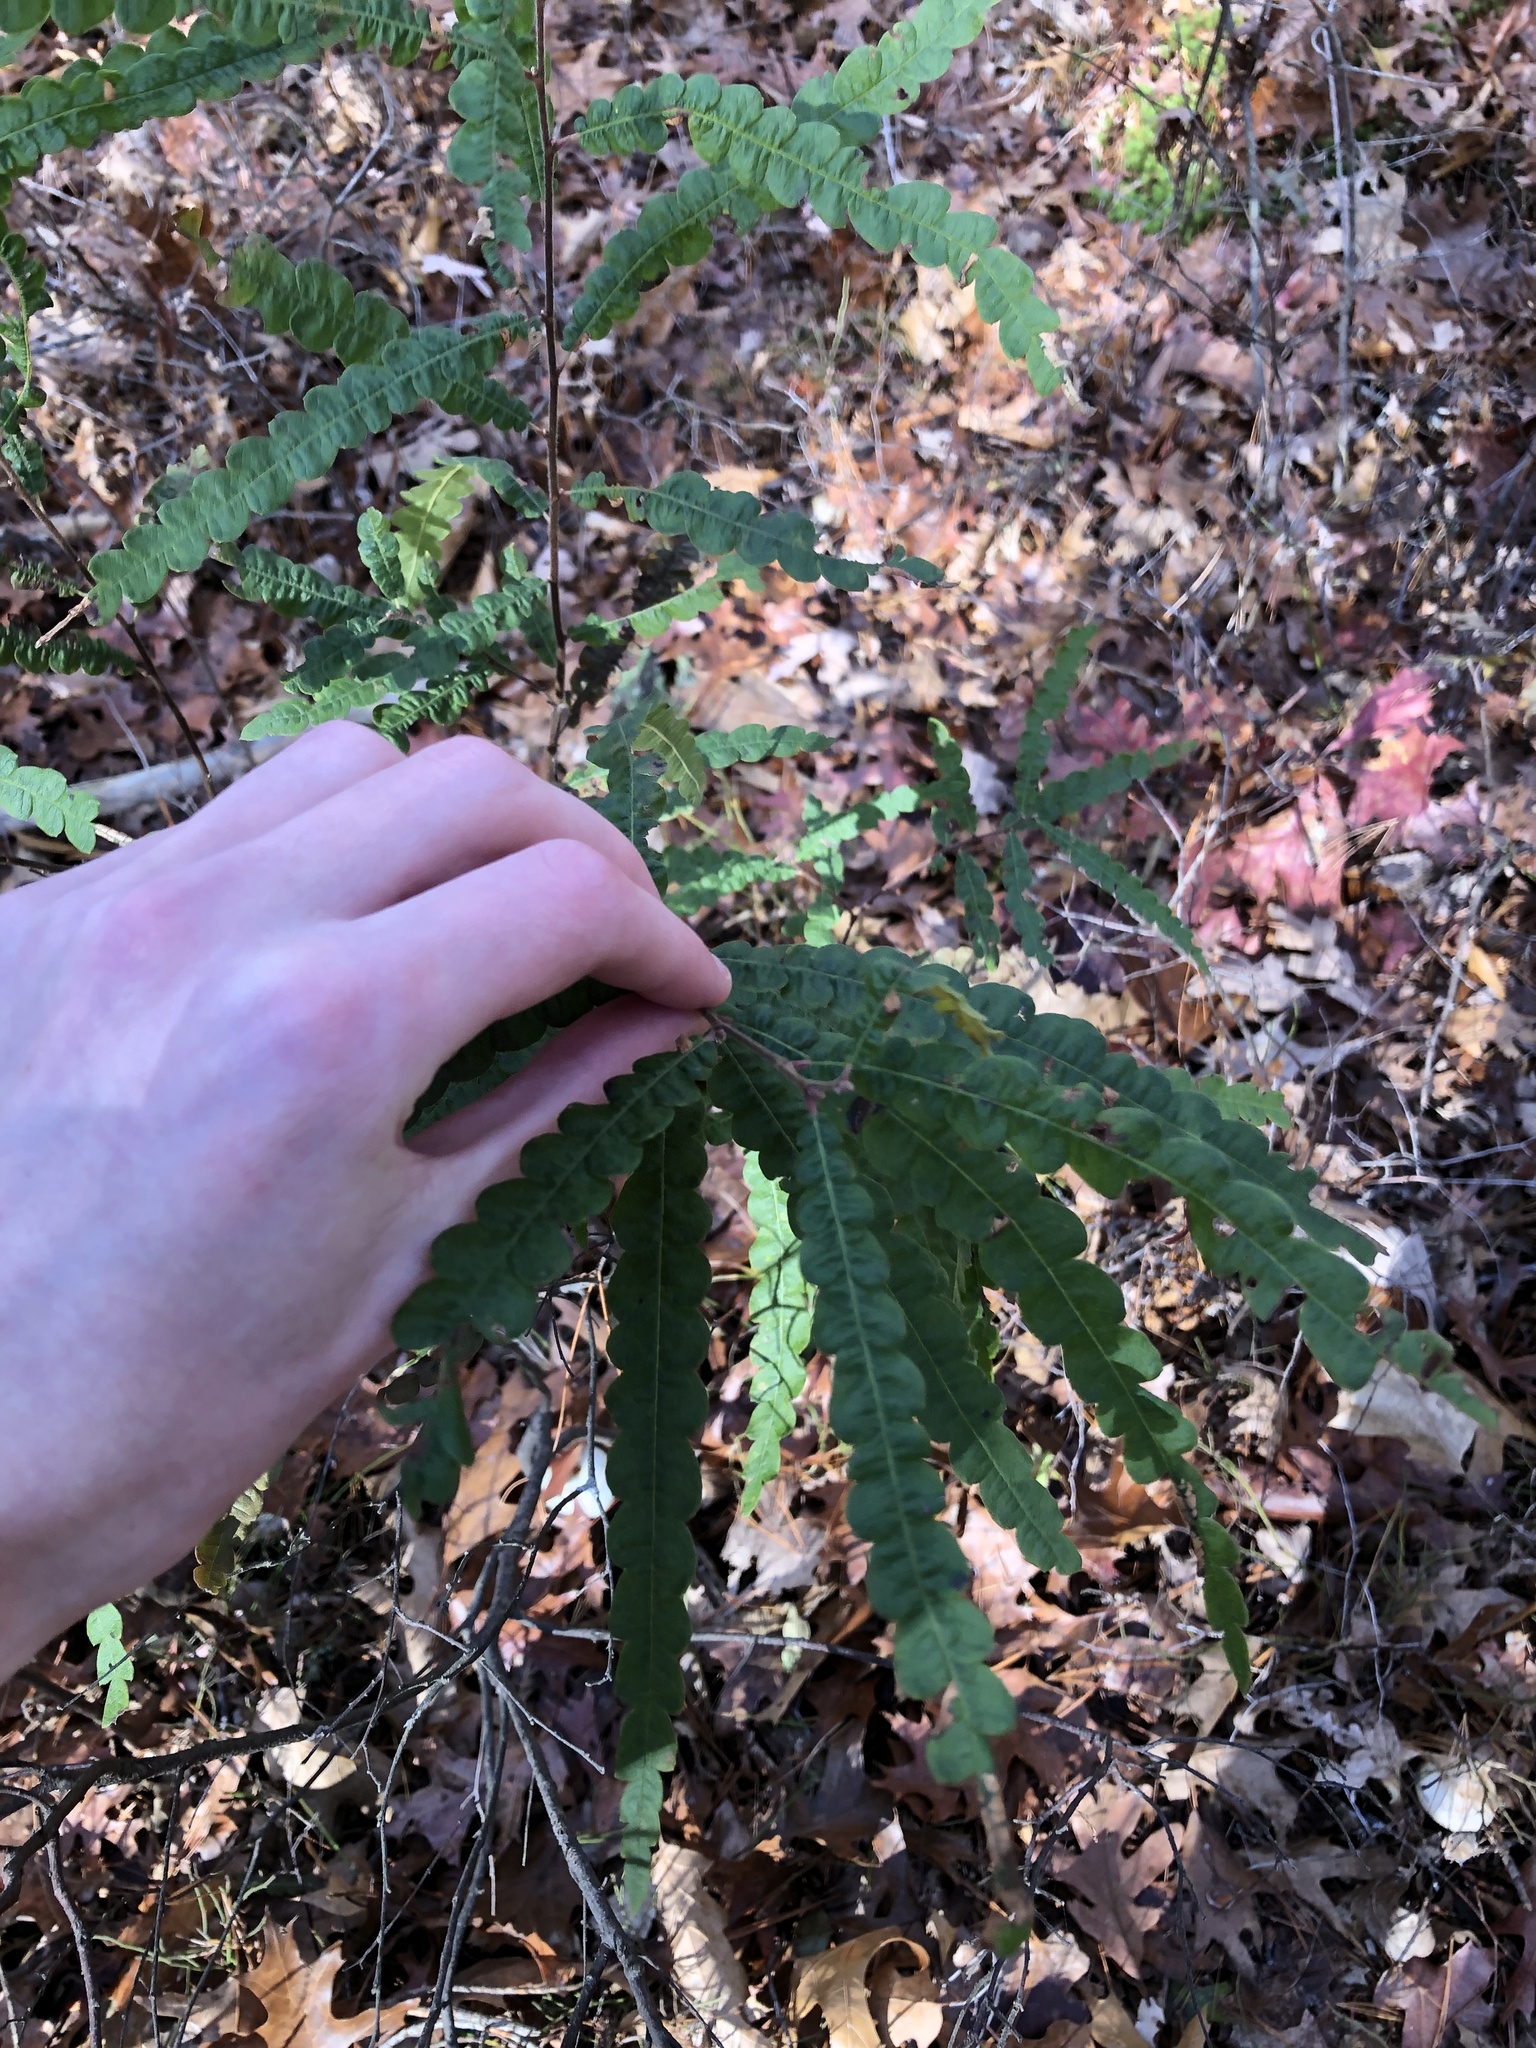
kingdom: Plantae
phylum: Tracheophyta
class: Magnoliopsida
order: Fagales
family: Myricaceae
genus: Comptonia
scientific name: Comptonia peregrina
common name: Sweet-fern
